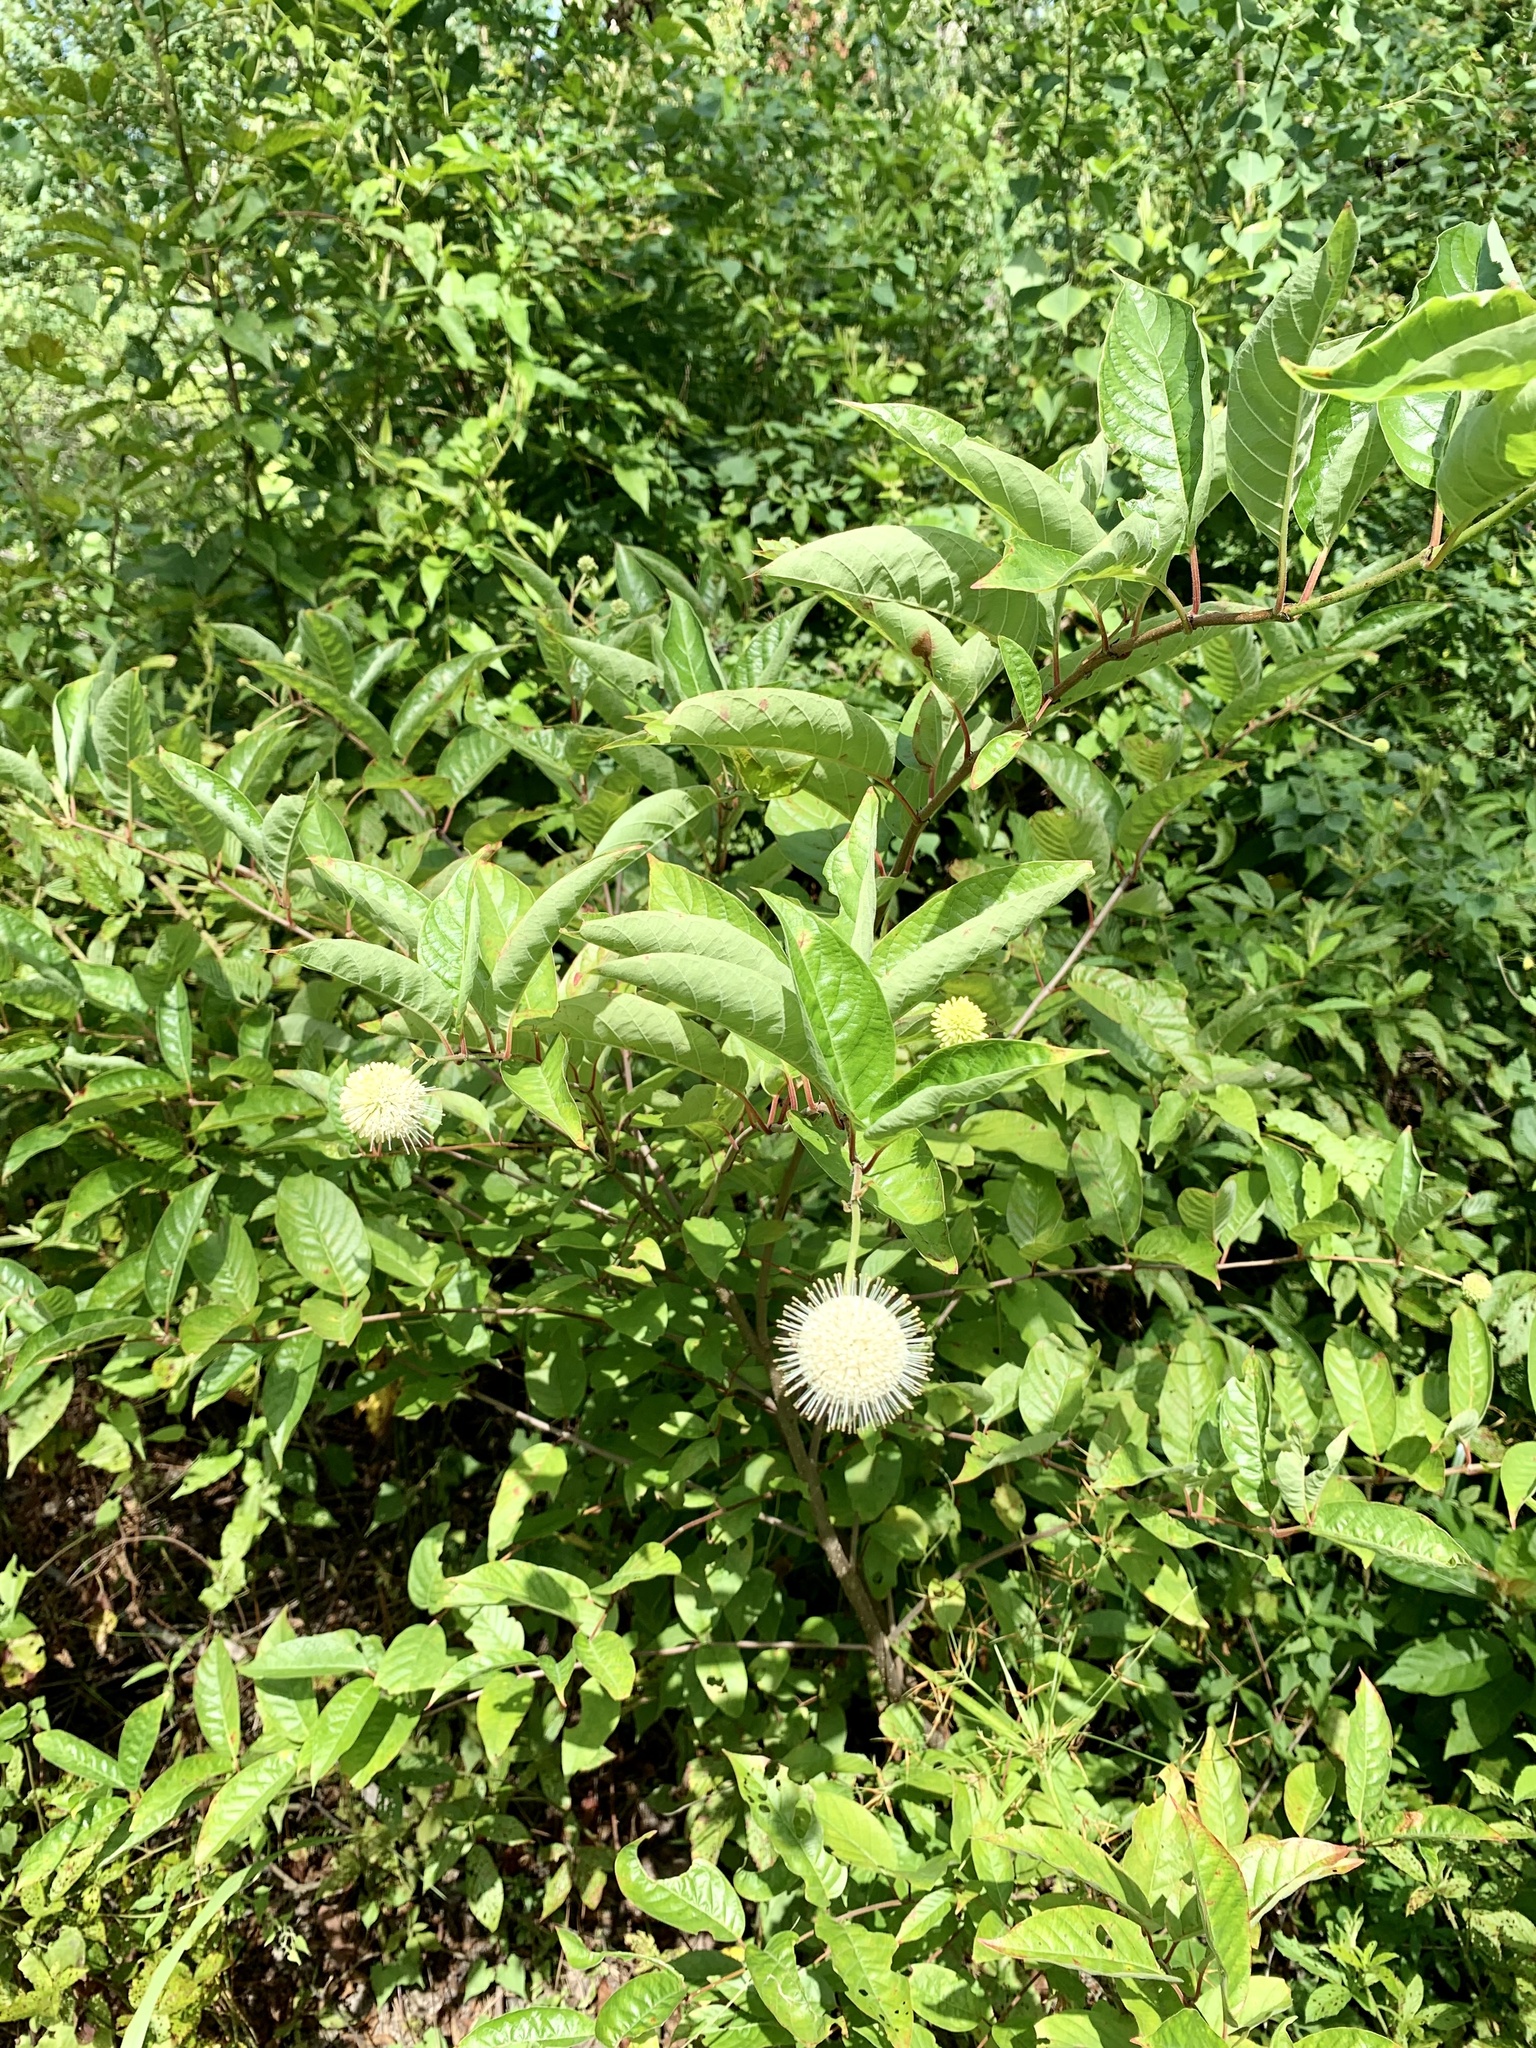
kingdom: Plantae
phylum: Tracheophyta
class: Magnoliopsida
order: Gentianales
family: Rubiaceae
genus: Cephalanthus
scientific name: Cephalanthus occidentalis
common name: Button-willow
